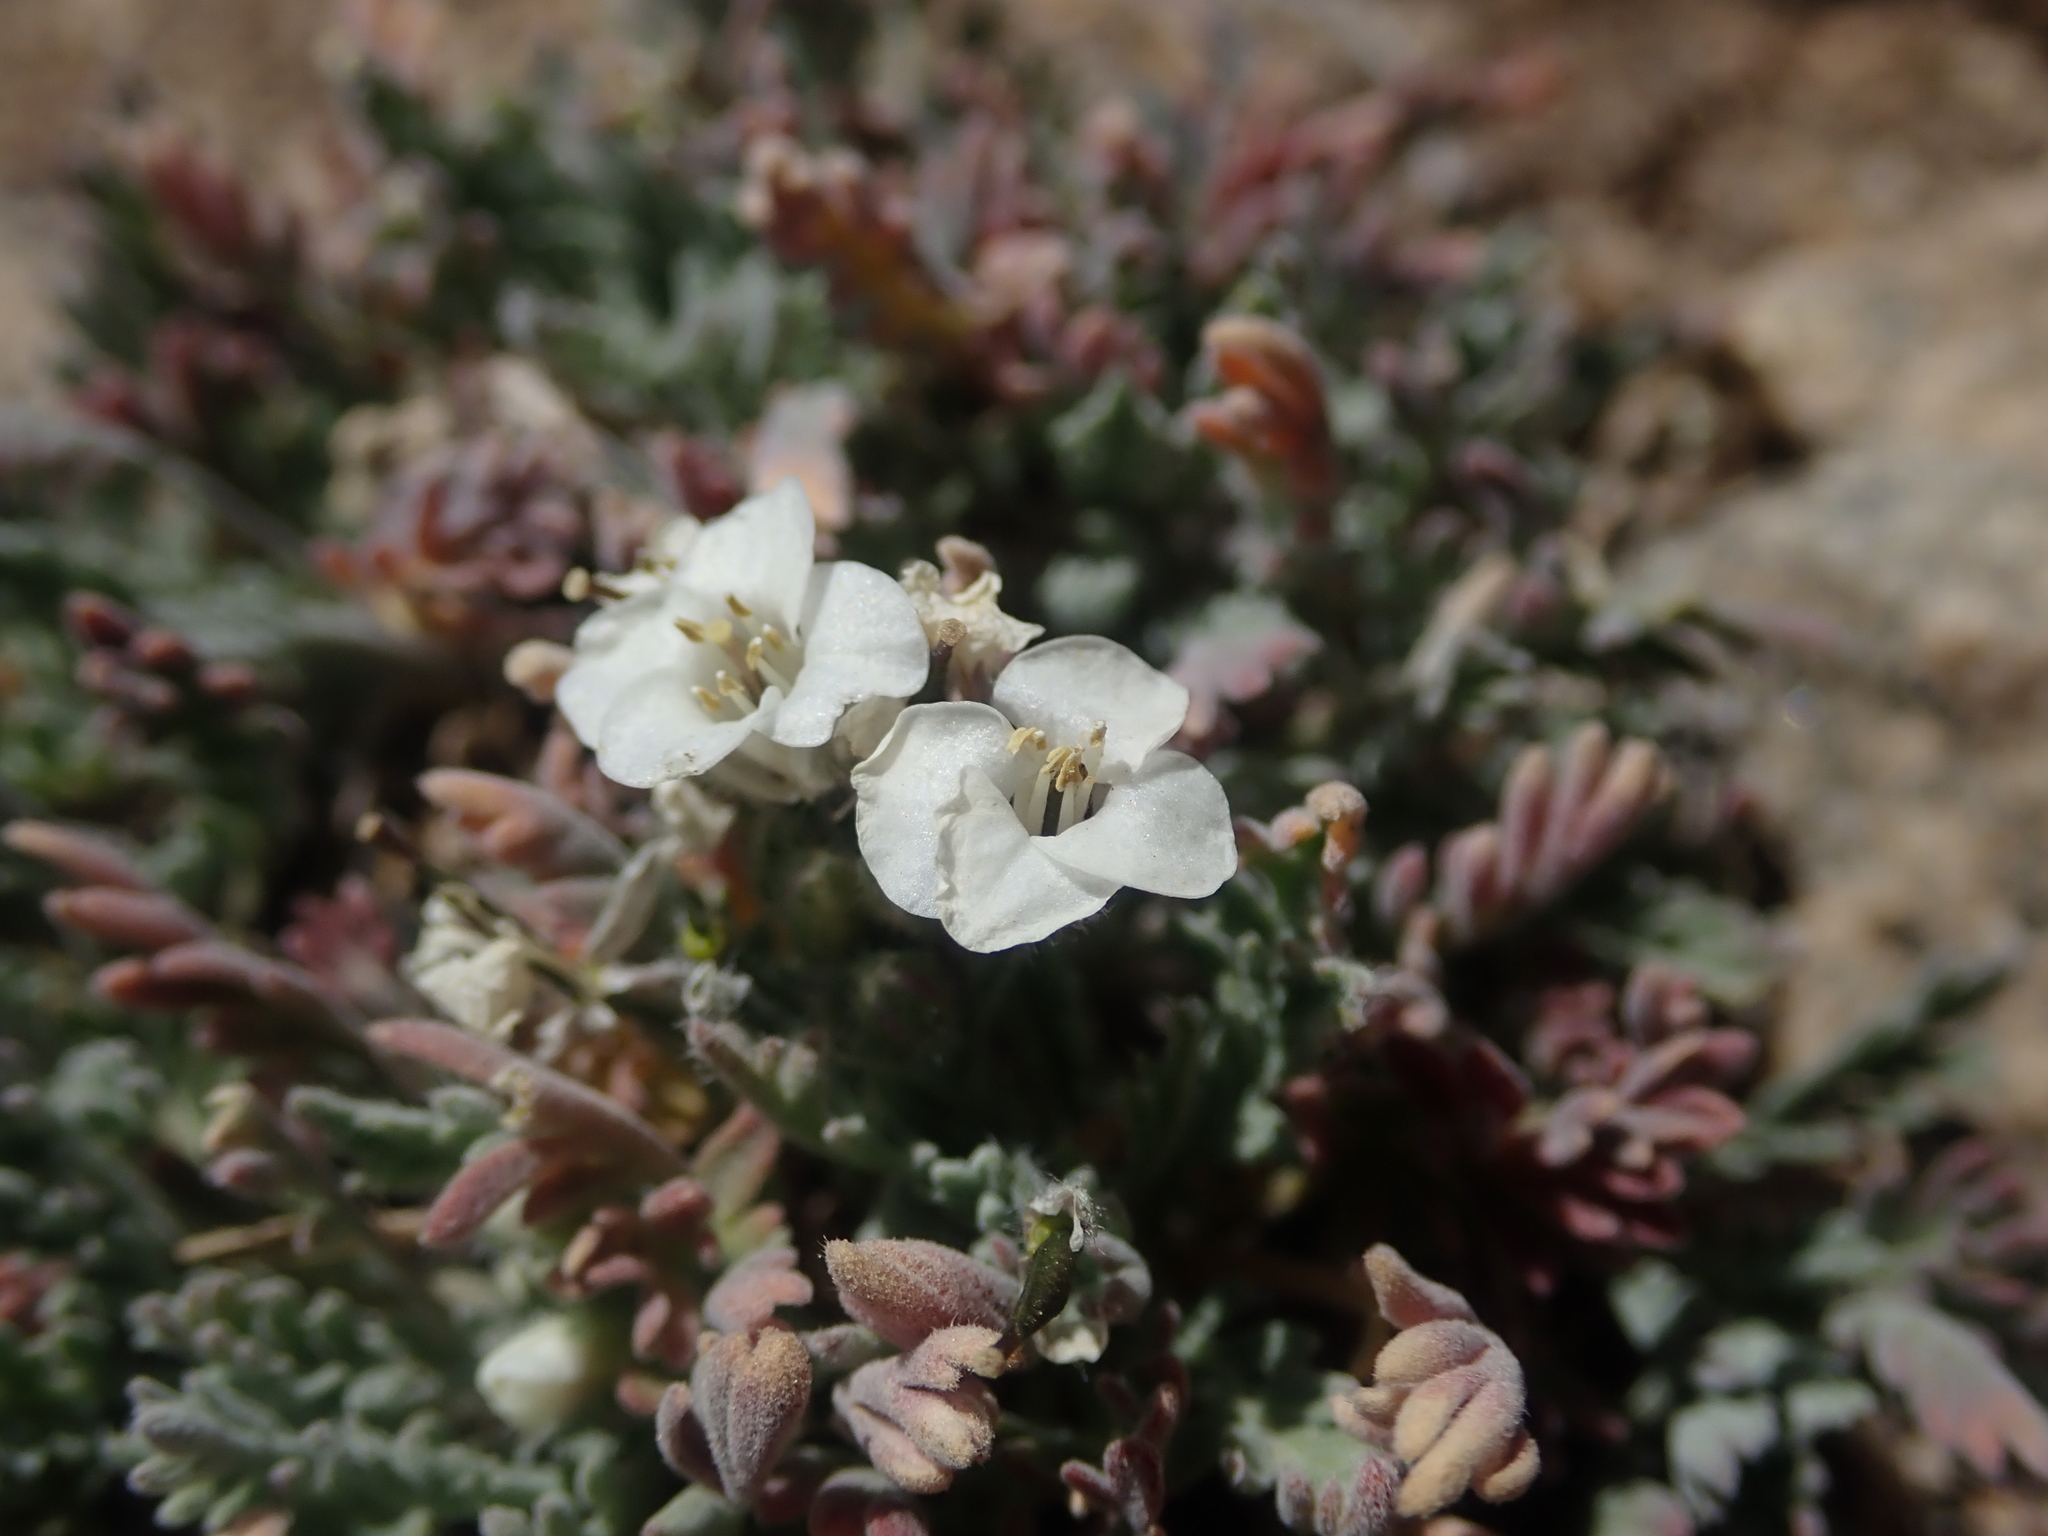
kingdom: Plantae
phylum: Tracheophyta
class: Magnoliopsida
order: Brassicales
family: Brassicaceae
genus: Smelowskia
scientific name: Smelowskia americana
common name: American false candytuft
